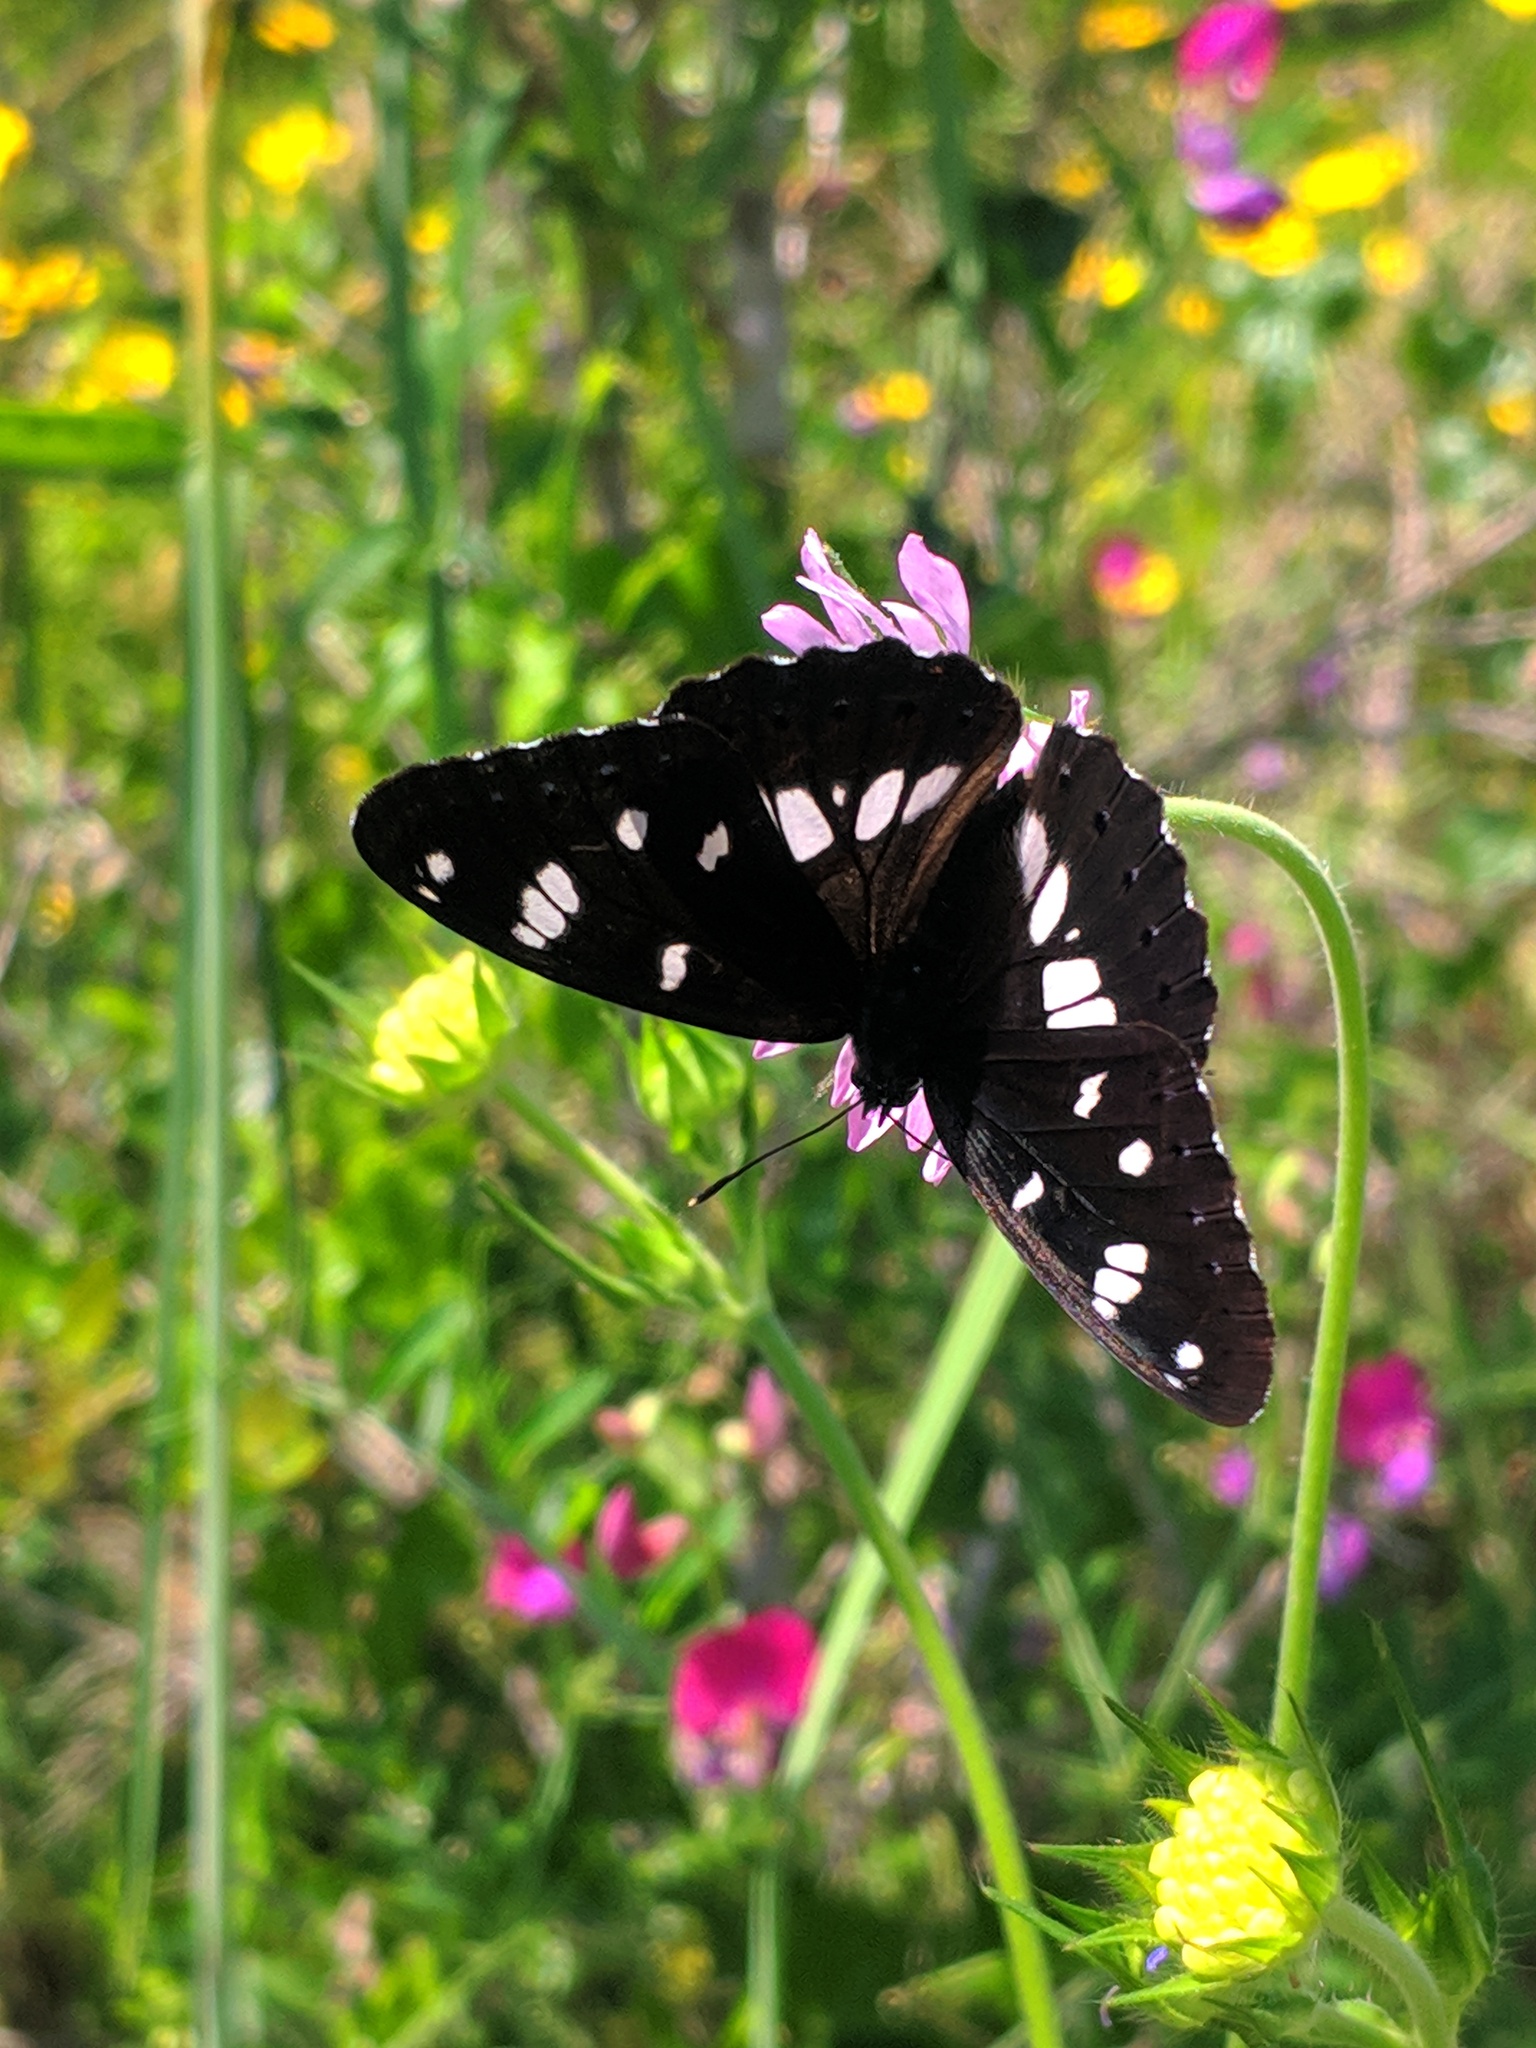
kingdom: Animalia
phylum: Arthropoda
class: Insecta
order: Lepidoptera
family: Nymphalidae
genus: Limenitis
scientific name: Limenitis reducta
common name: Southern white admiral
